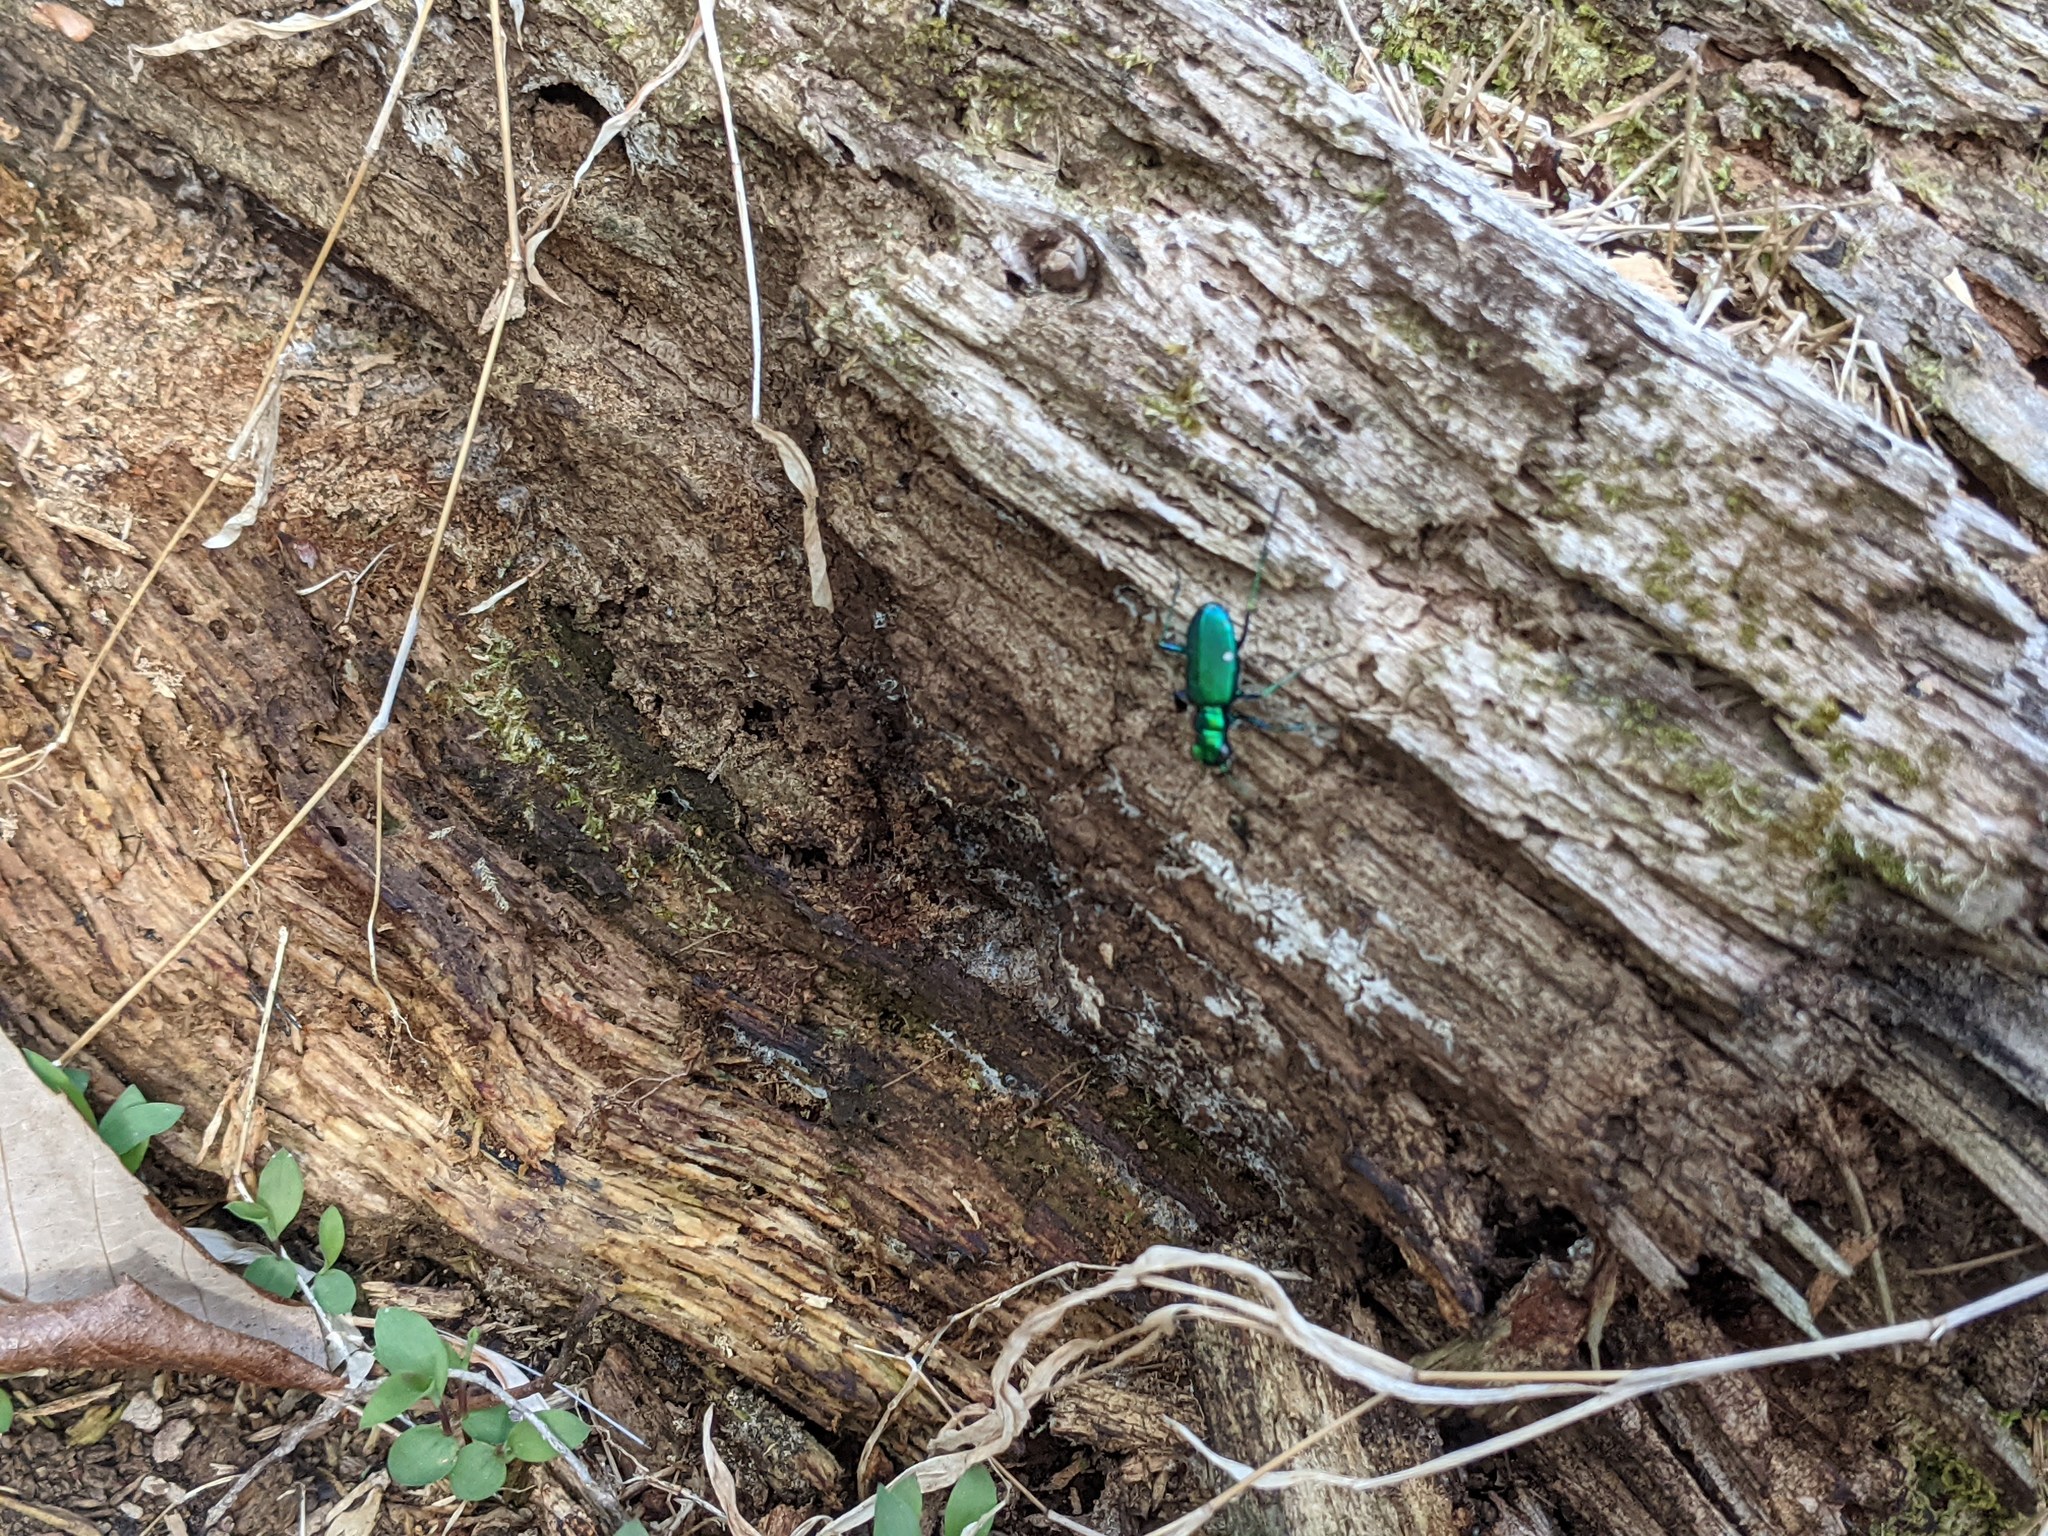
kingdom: Animalia
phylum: Arthropoda
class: Insecta
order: Coleoptera
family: Carabidae
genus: Cicindela
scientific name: Cicindela sexguttata
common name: Six-spotted tiger beetle
